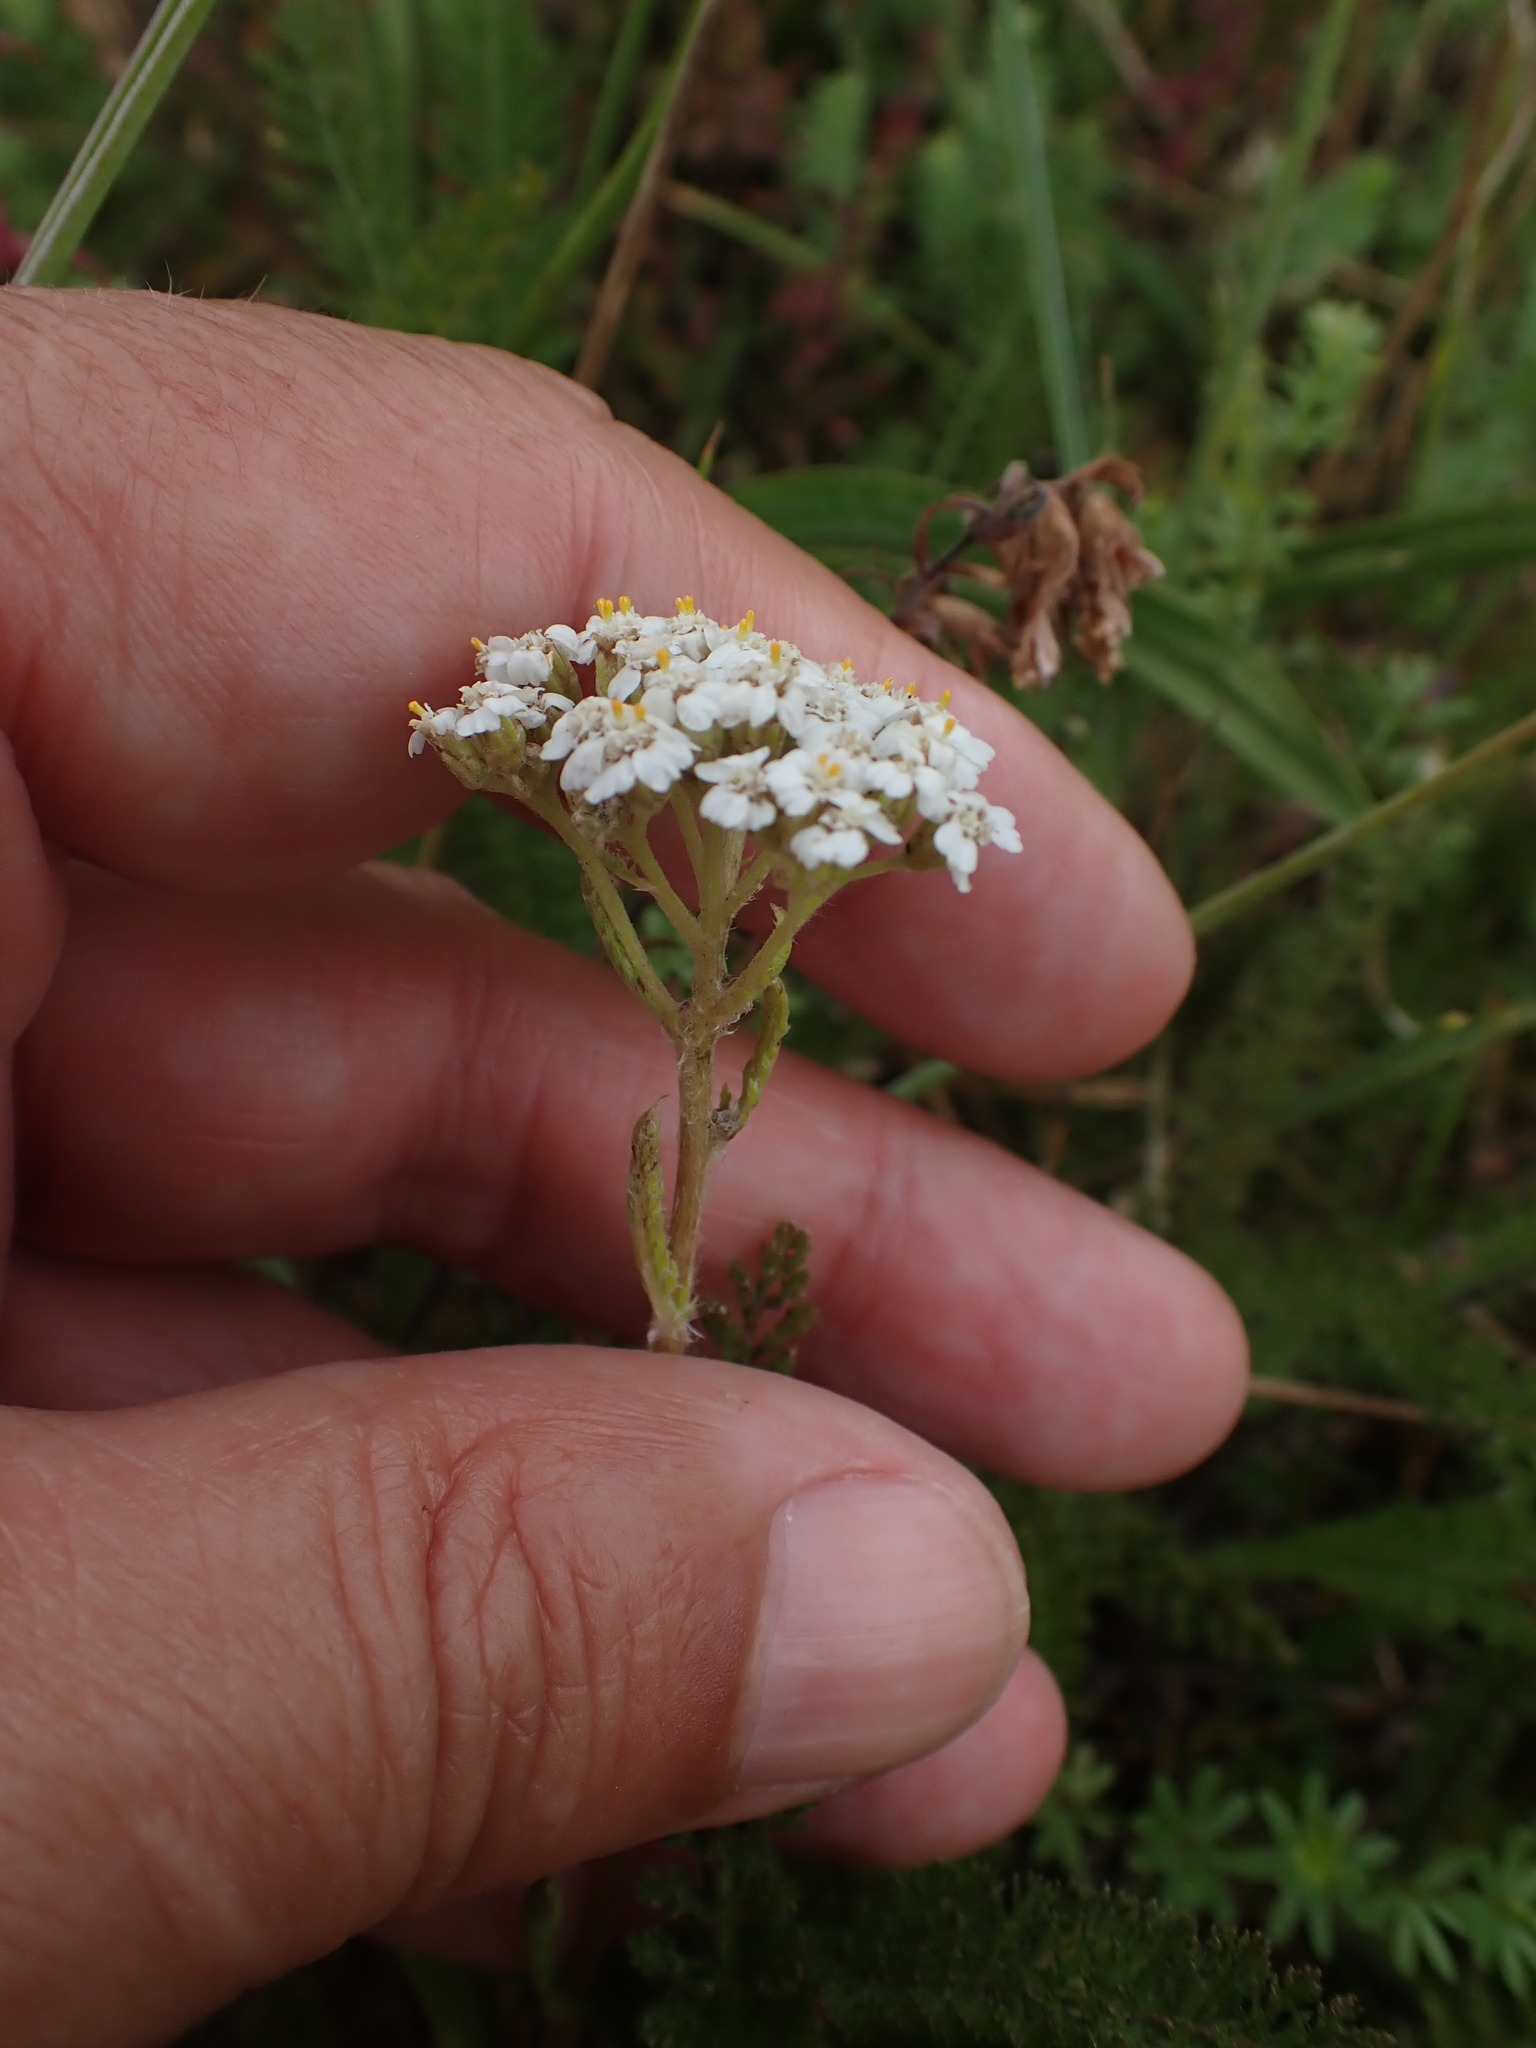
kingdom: Plantae
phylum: Tracheophyta
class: Magnoliopsida
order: Asterales
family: Asteraceae
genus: Achillea
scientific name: Achillea millefolium
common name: Yarrow
